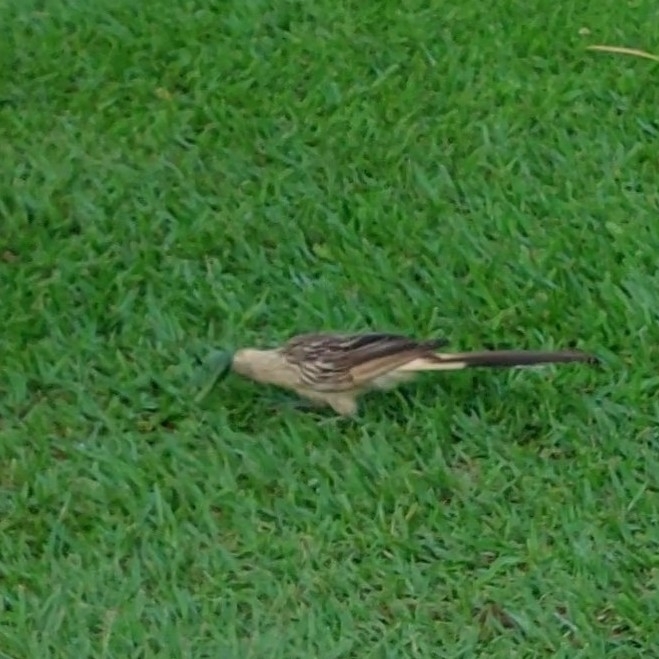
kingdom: Animalia
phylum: Chordata
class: Aves
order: Cuculiformes
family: Cuculidae
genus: Guira
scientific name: Guira guira
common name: Guira cuckoo
